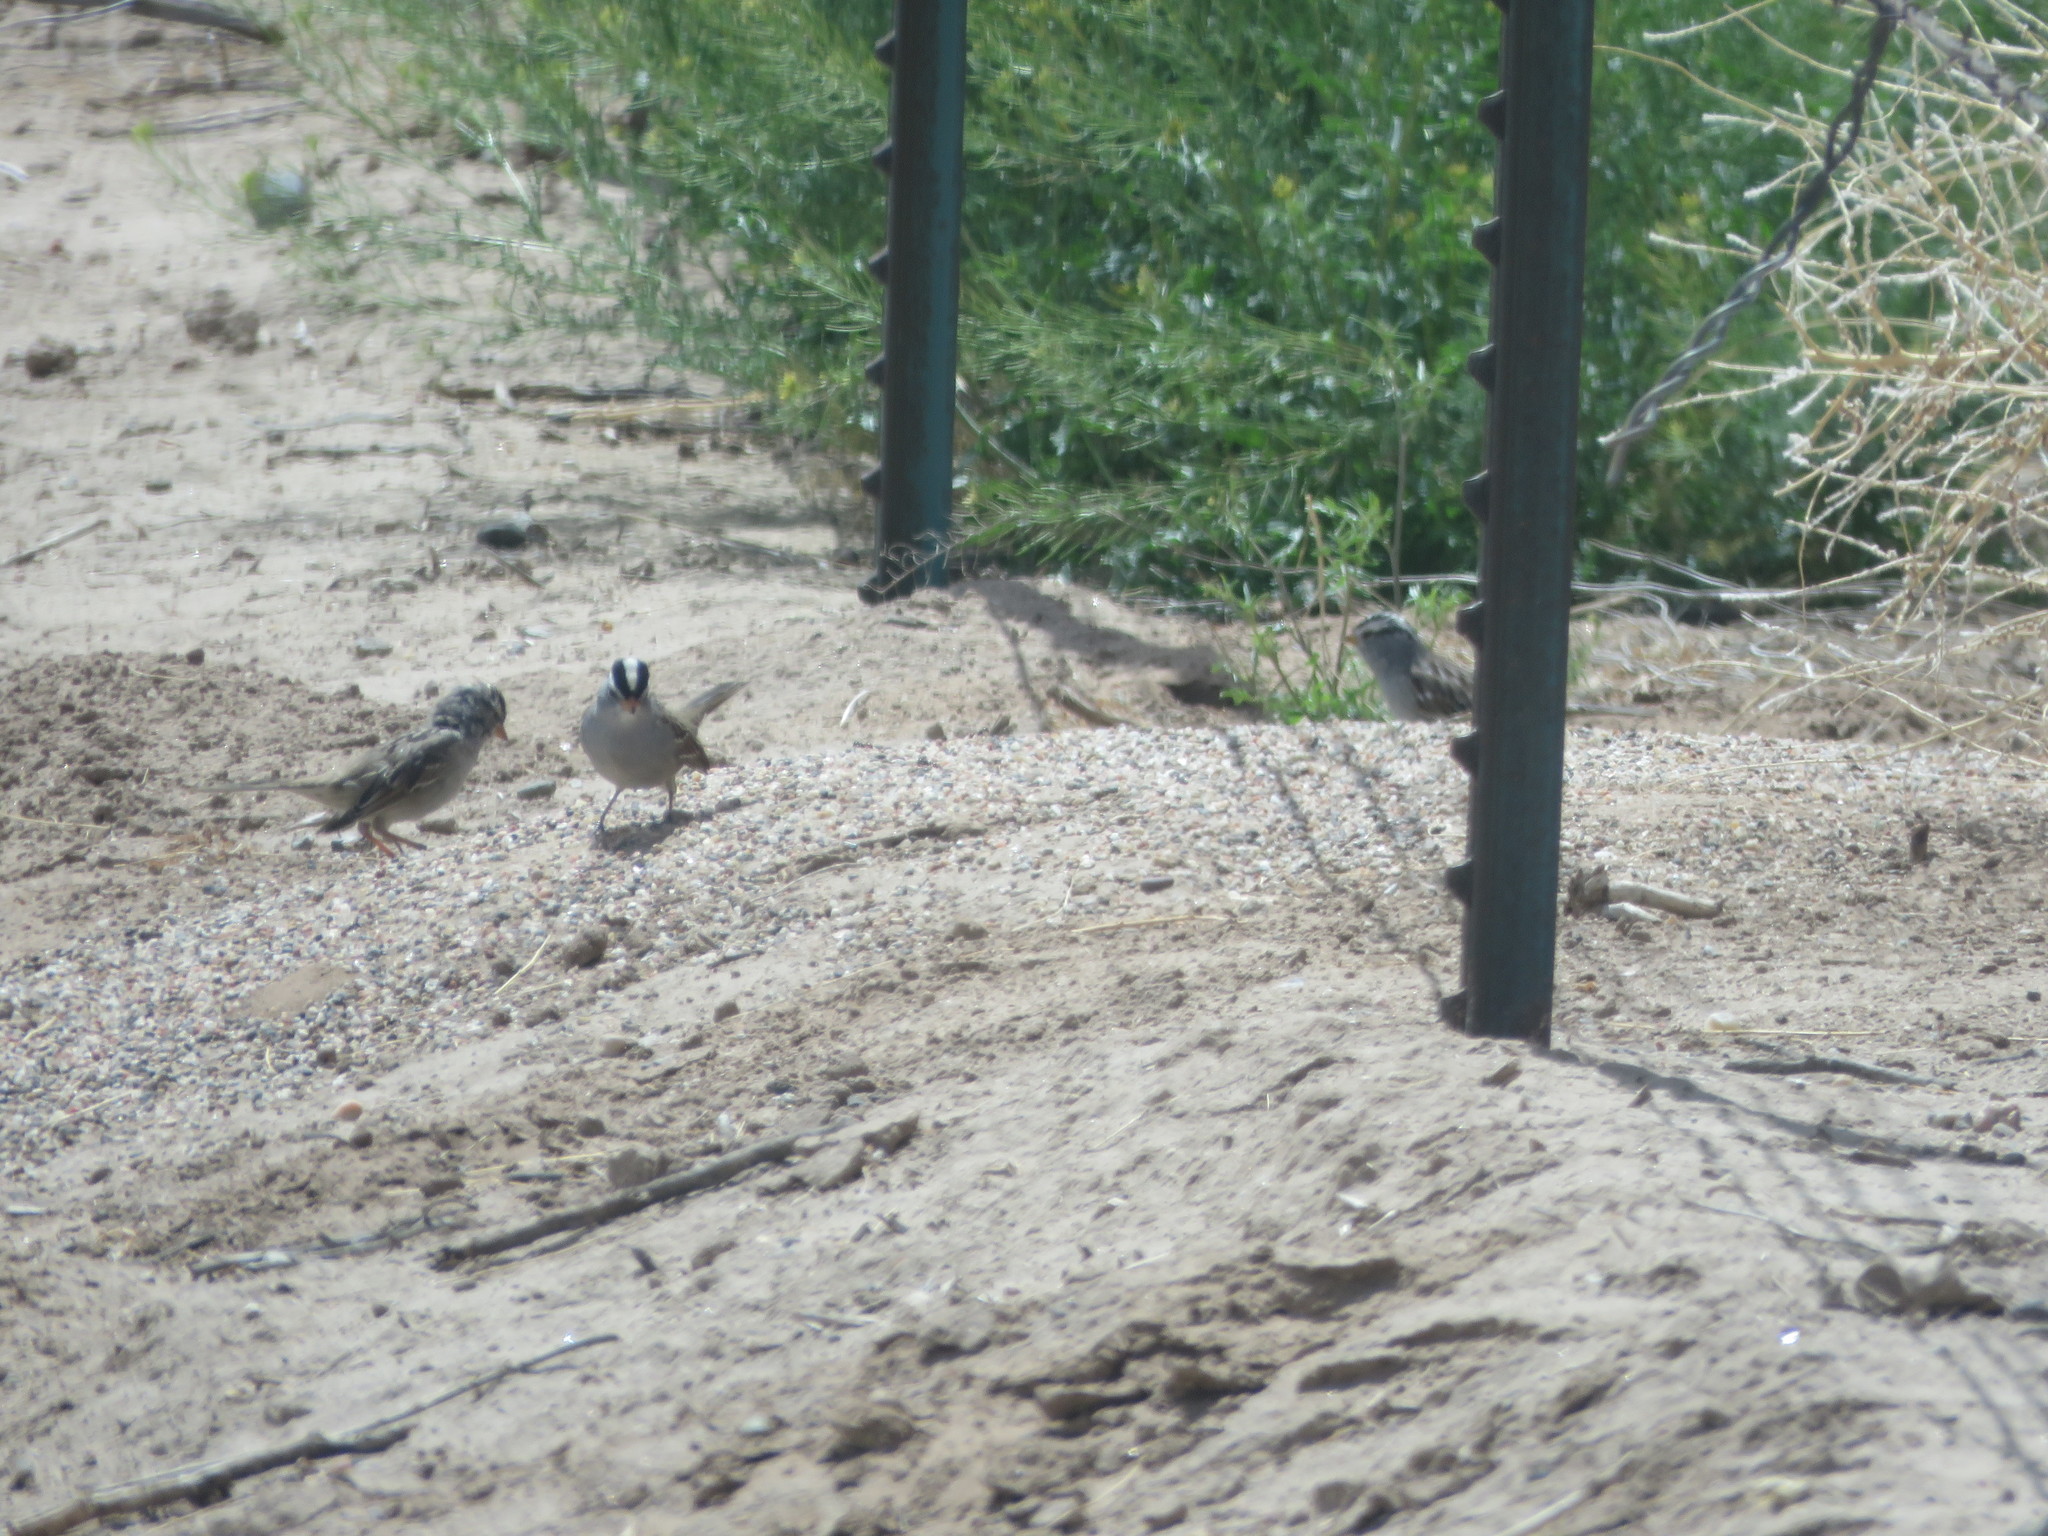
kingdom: Animalia
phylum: Chordata
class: Aves
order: Passeriformes
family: Passerellidae
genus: Zonotrichia
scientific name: Zonotrichia leucophrys
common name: White-crowned sparrow
